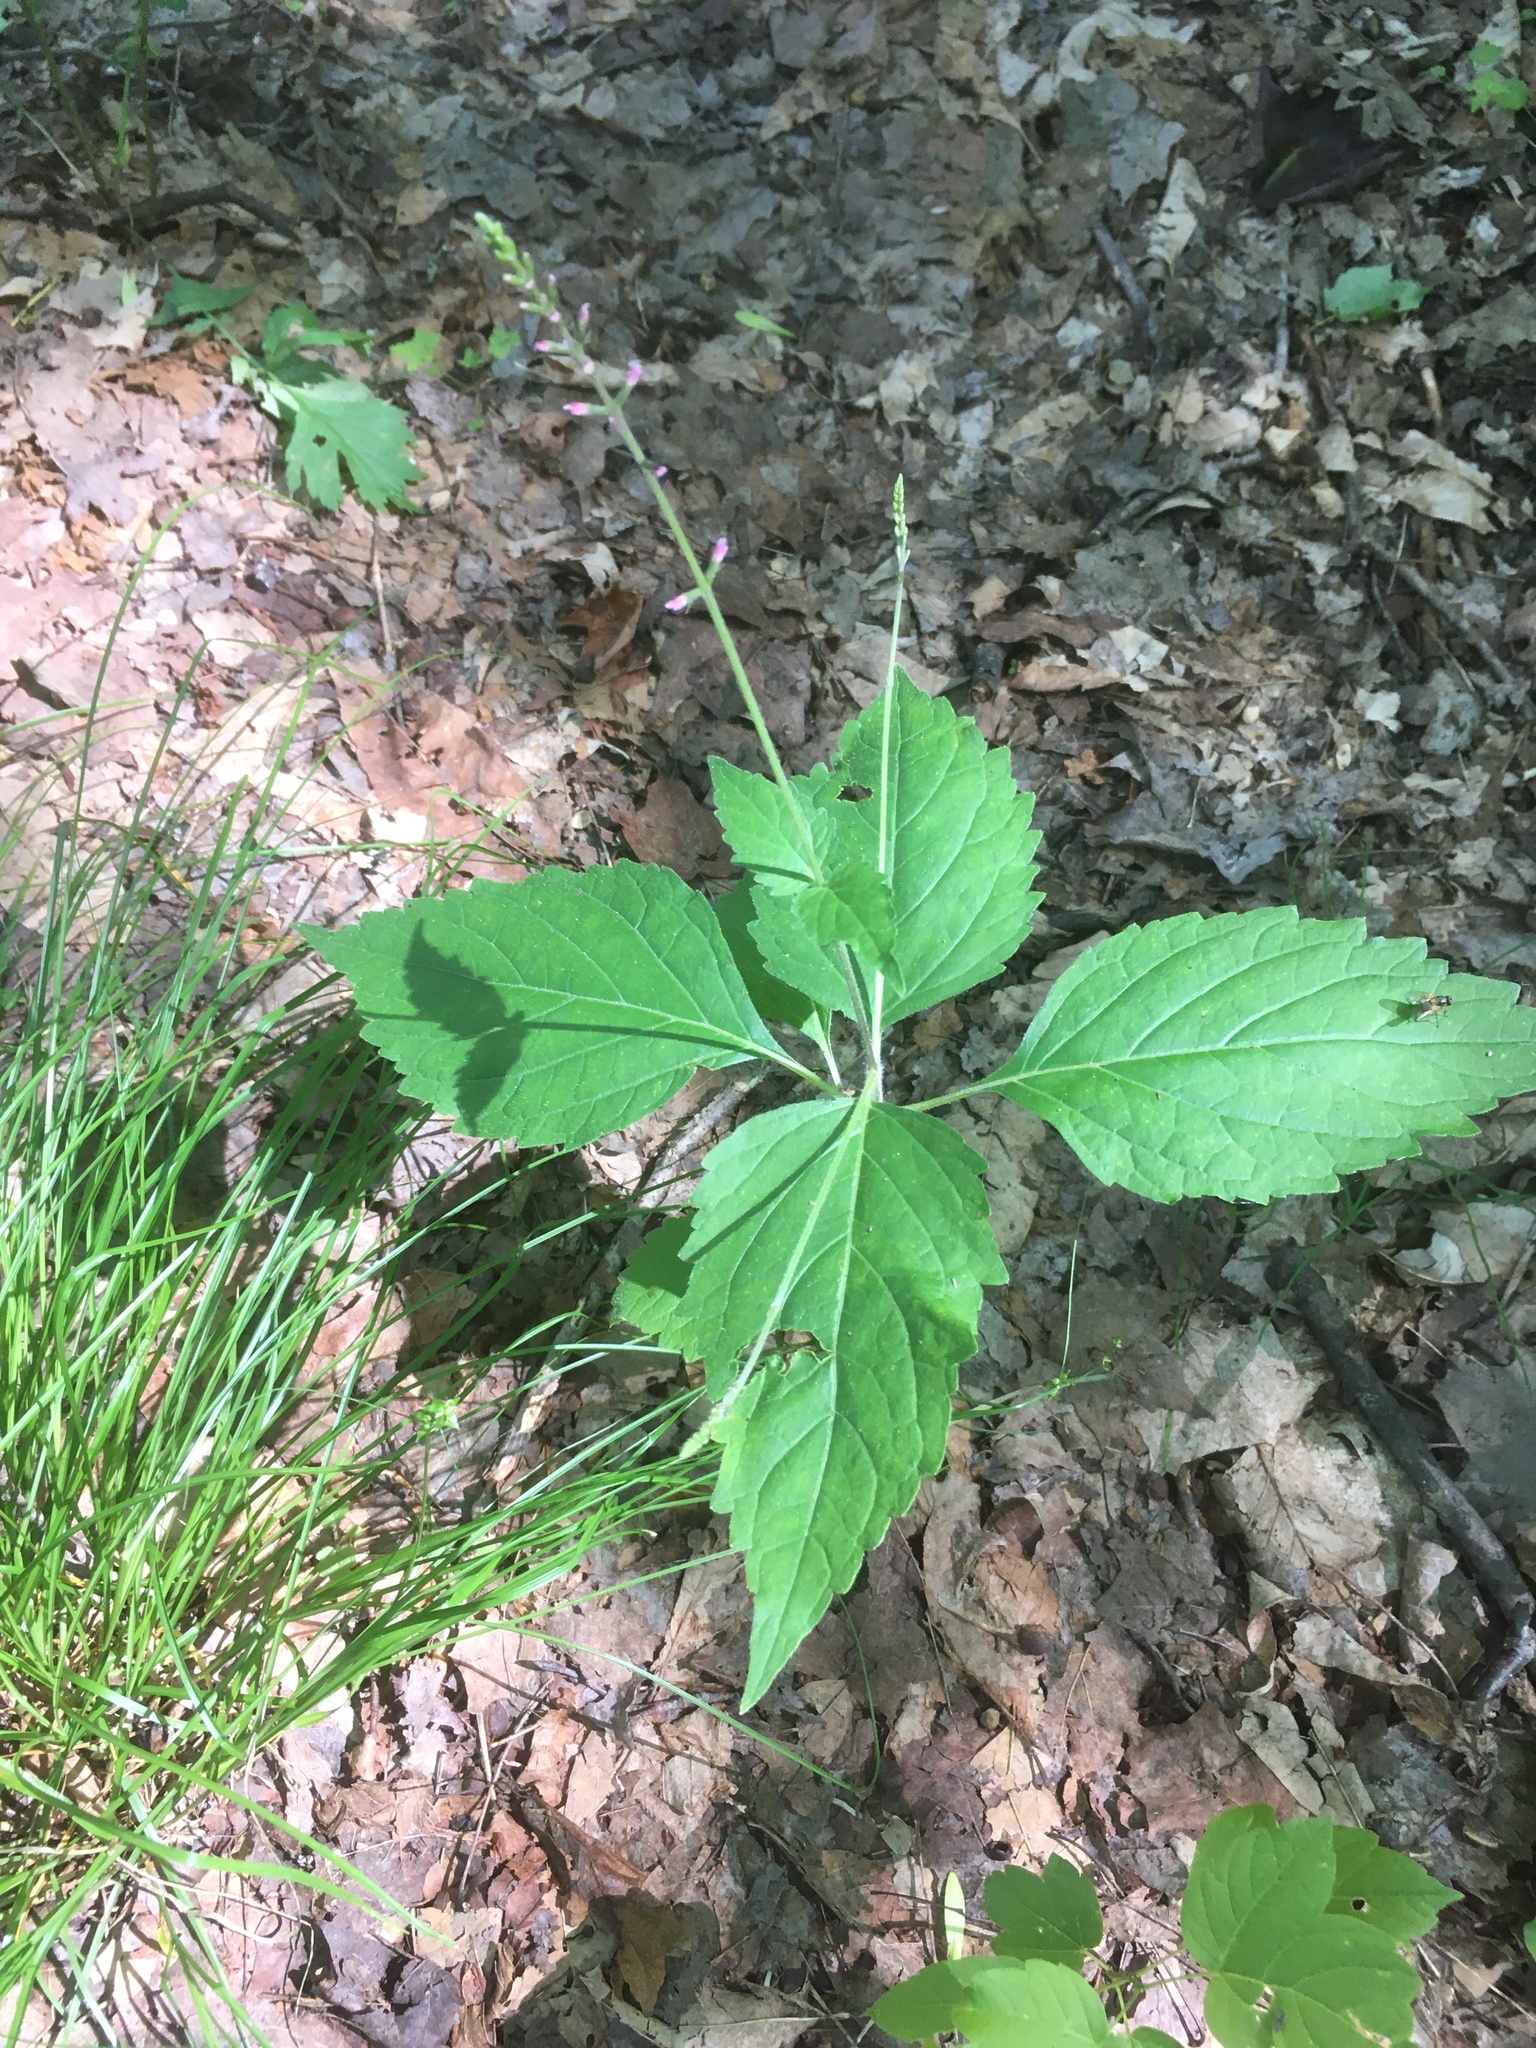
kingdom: Plantae
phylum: Tracheophyta
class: Magnoliopsida
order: Lamiales
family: Phrymaceae
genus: Phryma
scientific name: Phryma leptostachya
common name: American lopseed
